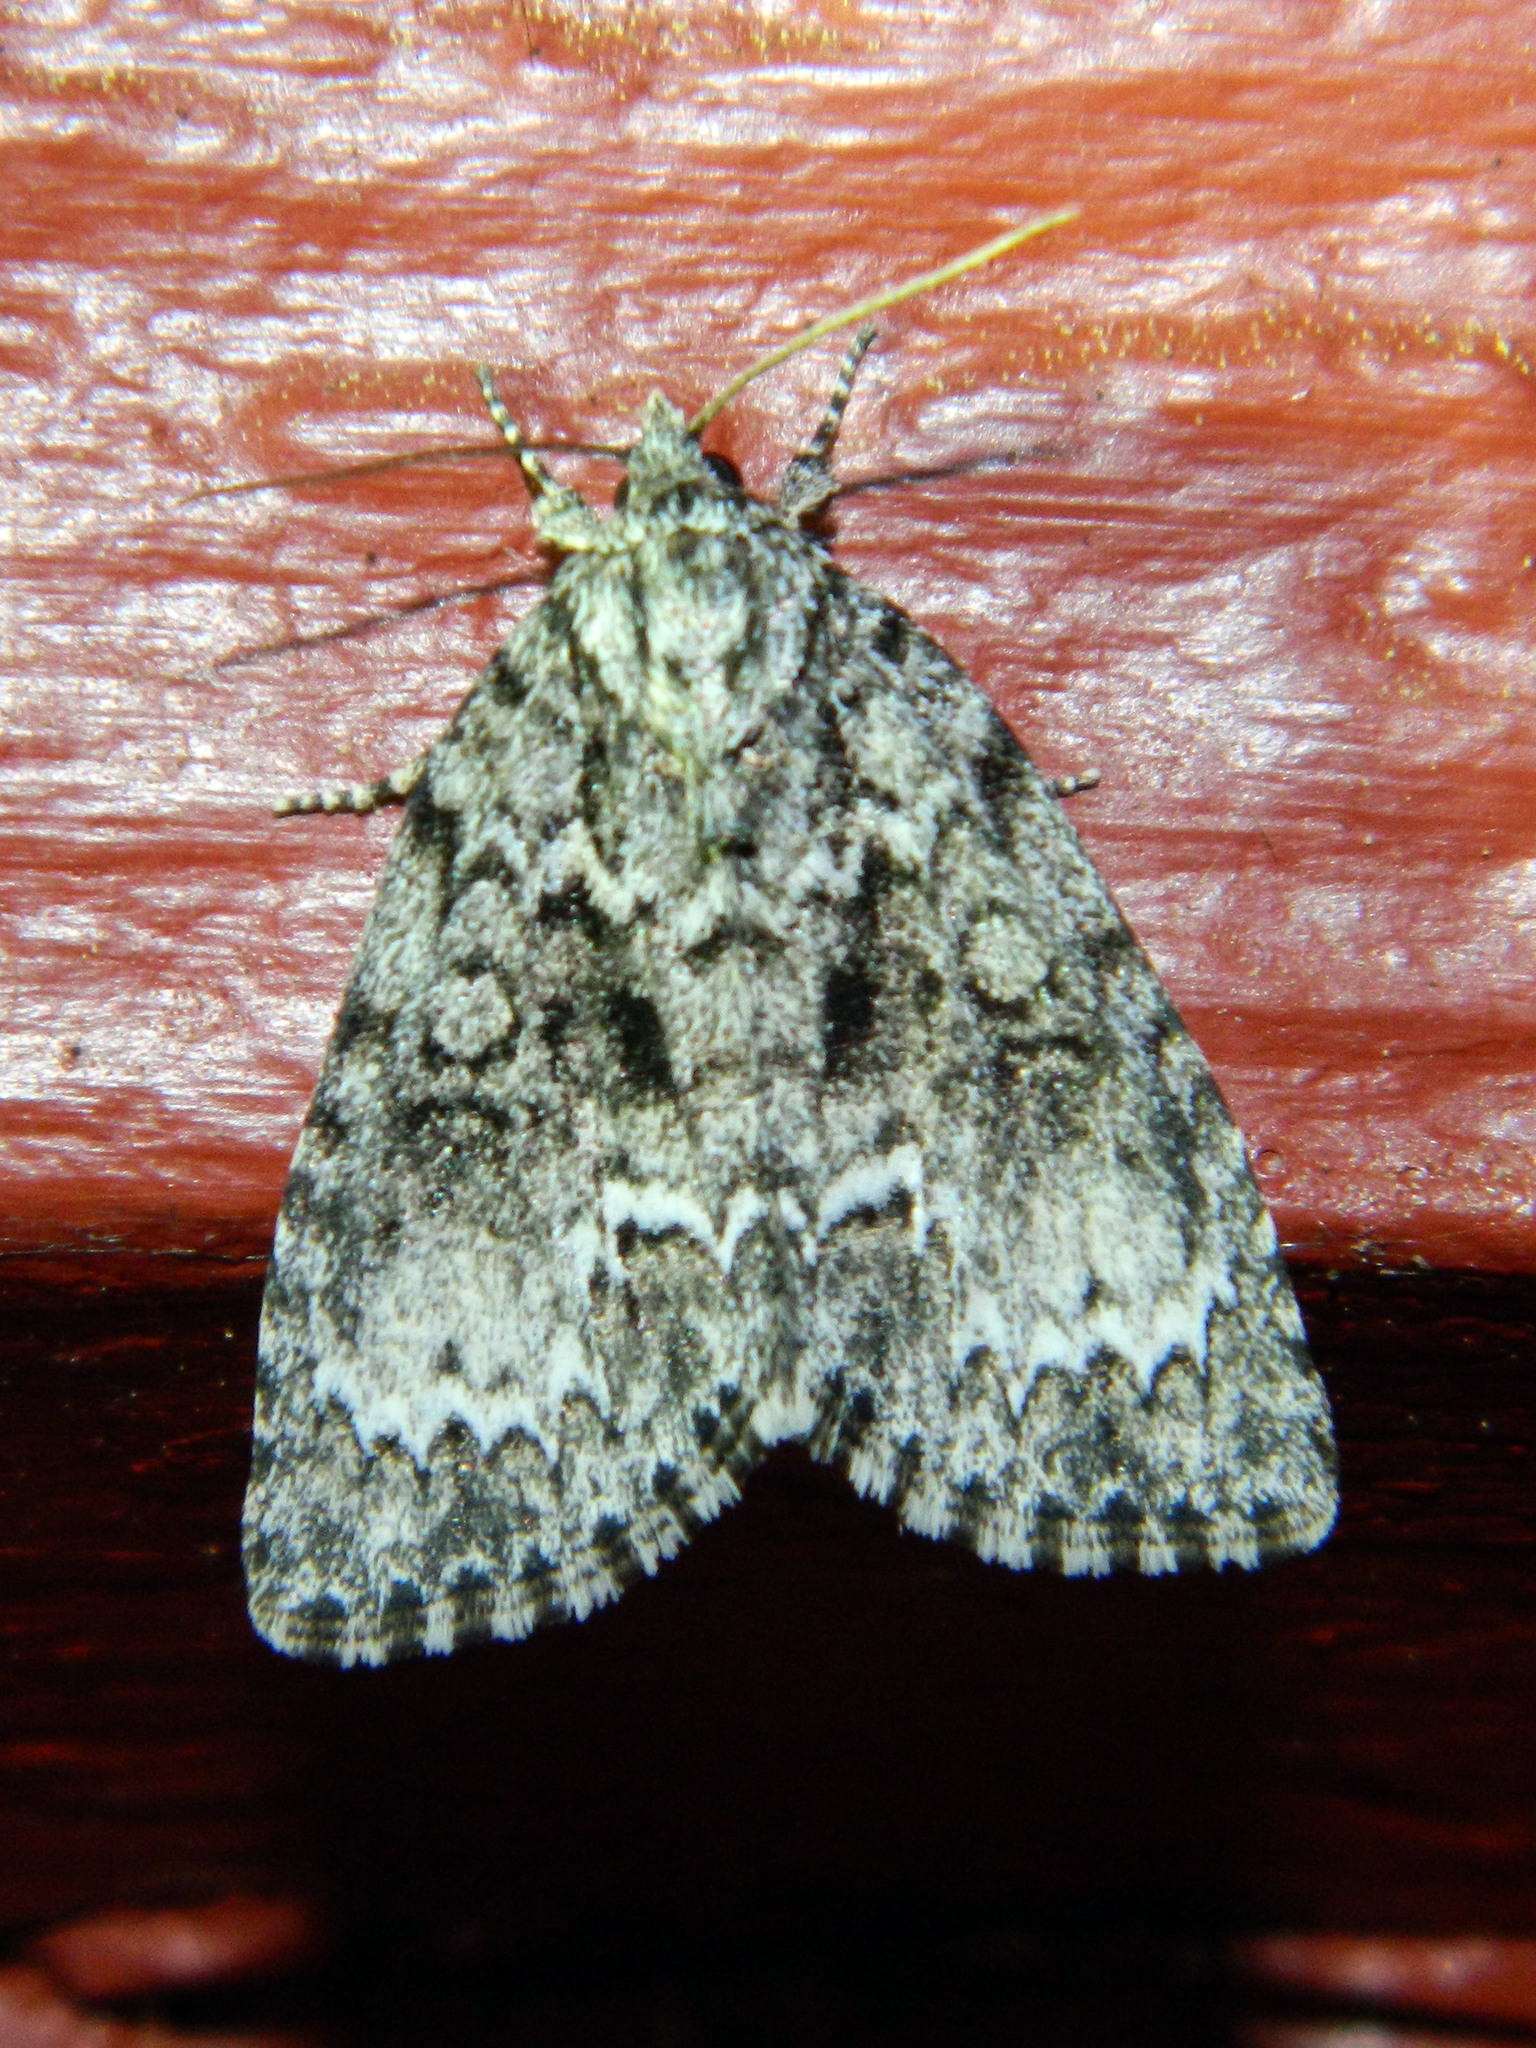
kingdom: Animalia
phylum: Arthropoda
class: Insecta
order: Lepidoptera
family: Noctuidae
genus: Acronicta
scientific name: Acronicta fragilis
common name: Fragile dagger
